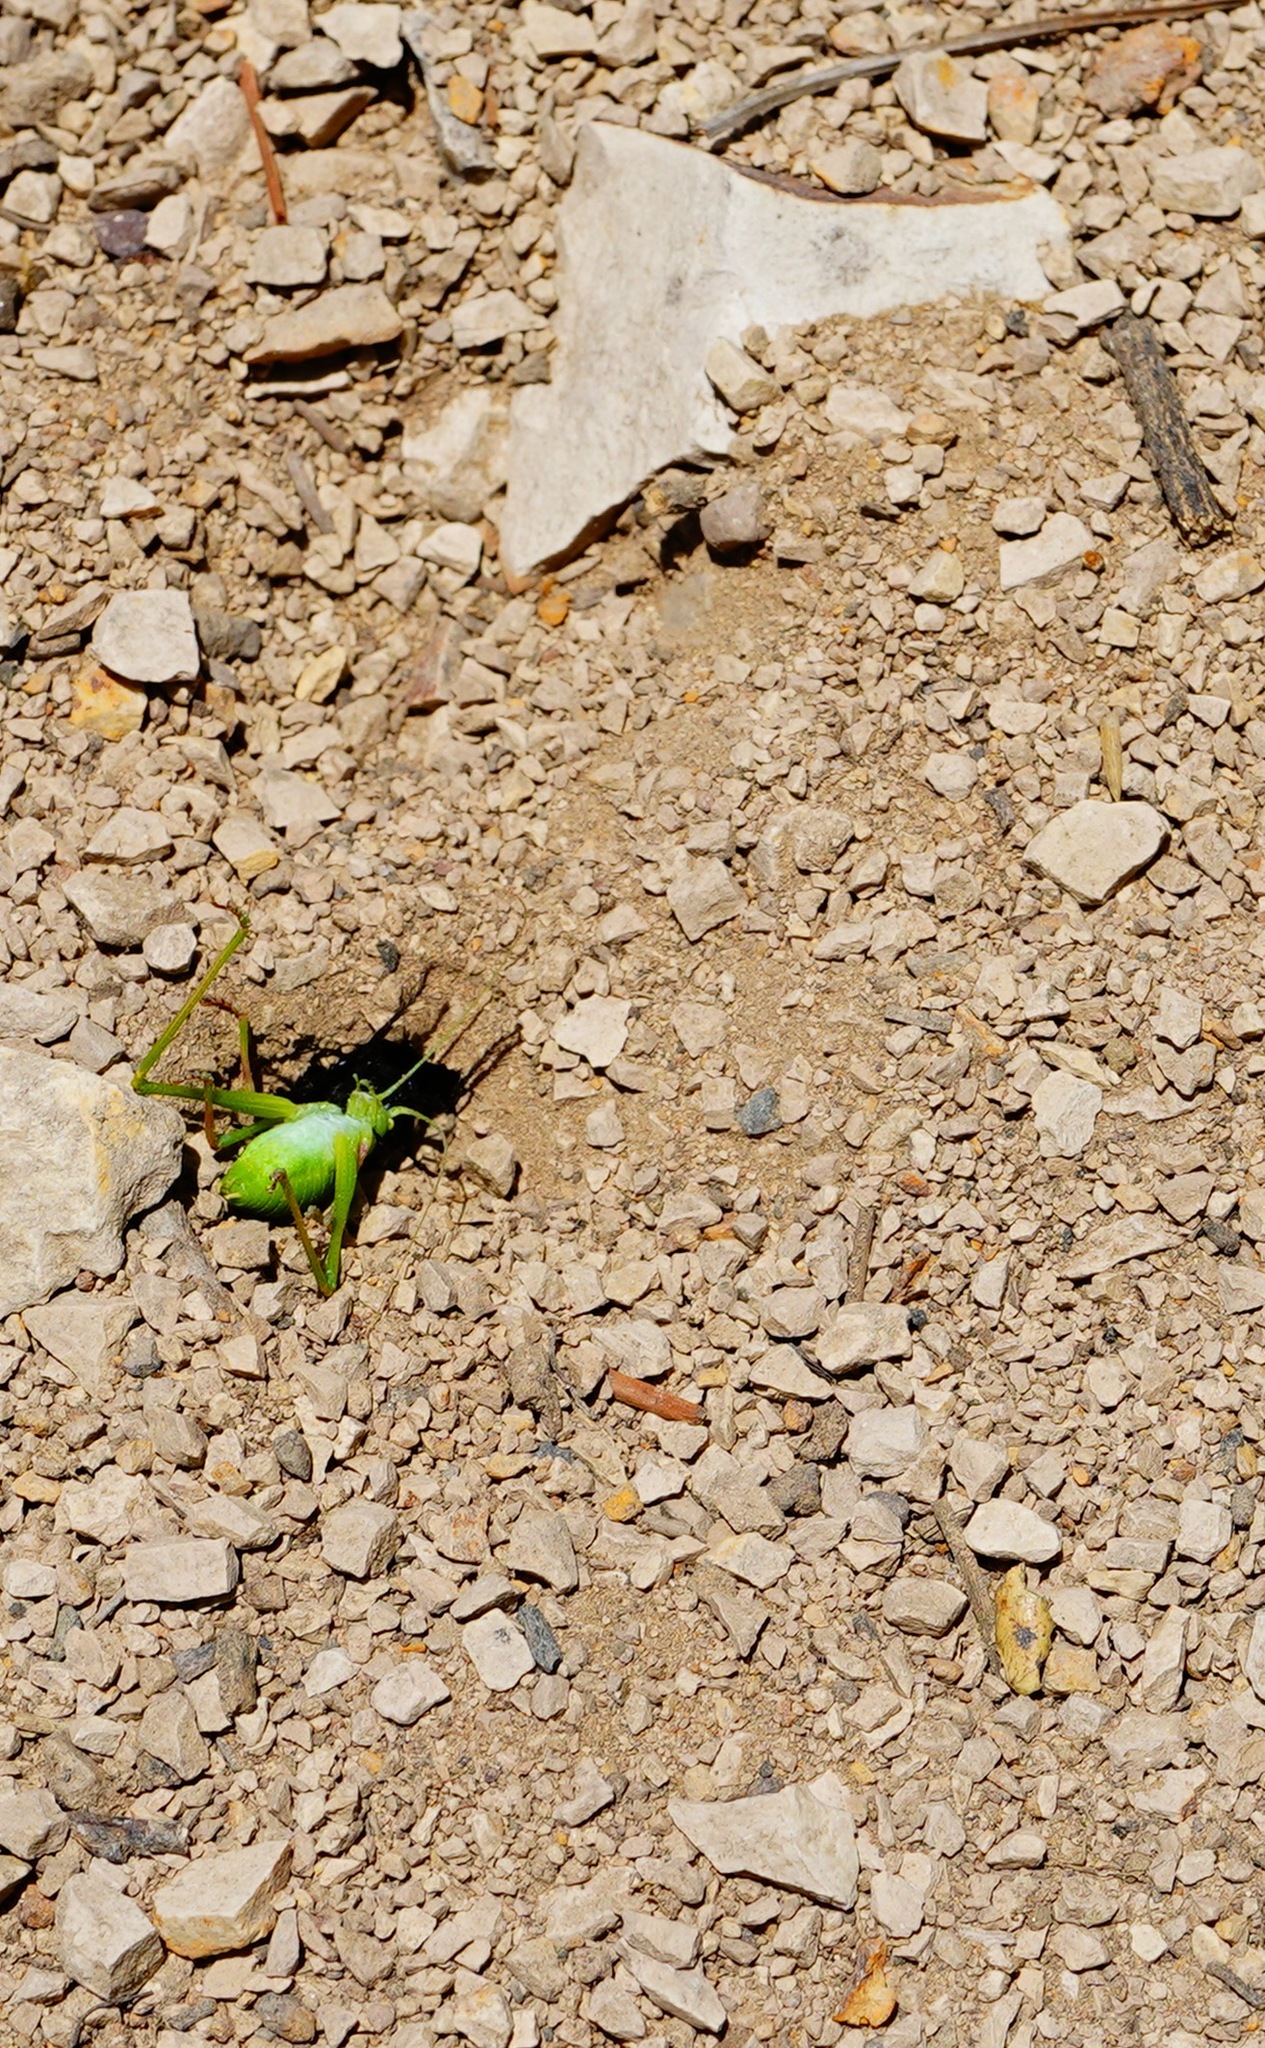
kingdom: Animalia
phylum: Arthropoda
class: Insecta
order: Hymenoptera
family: Sphecidae
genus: Sphex
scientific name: Sphex lucae
